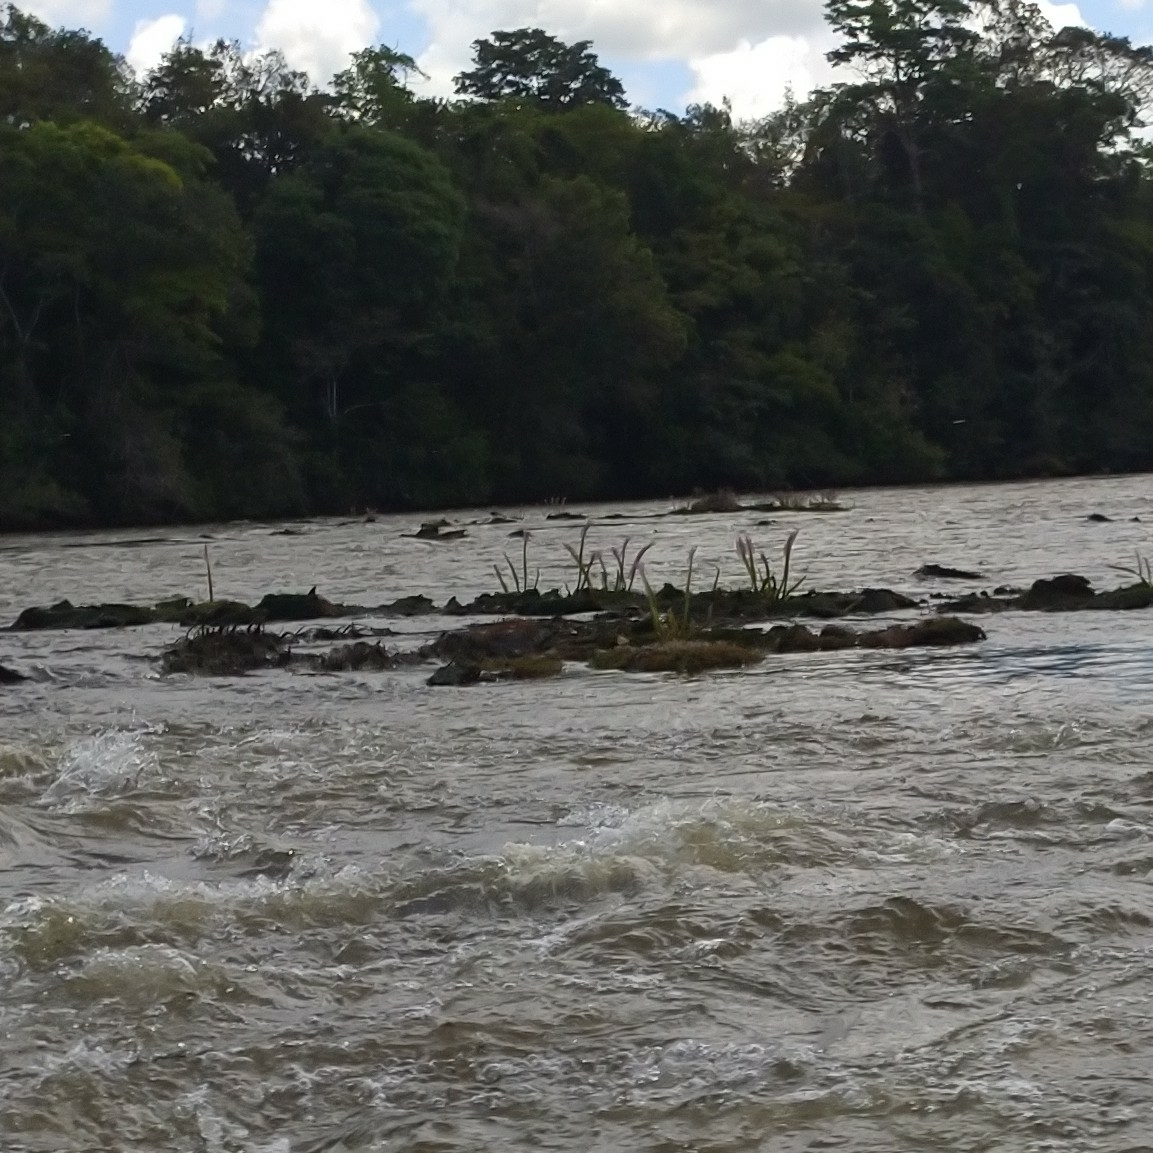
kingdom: Plantae
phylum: Tracheophyta
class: Magnoliopsida
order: Malpighiales
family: Podostemaceae
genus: Mourera
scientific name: Mourera fluviatilis
